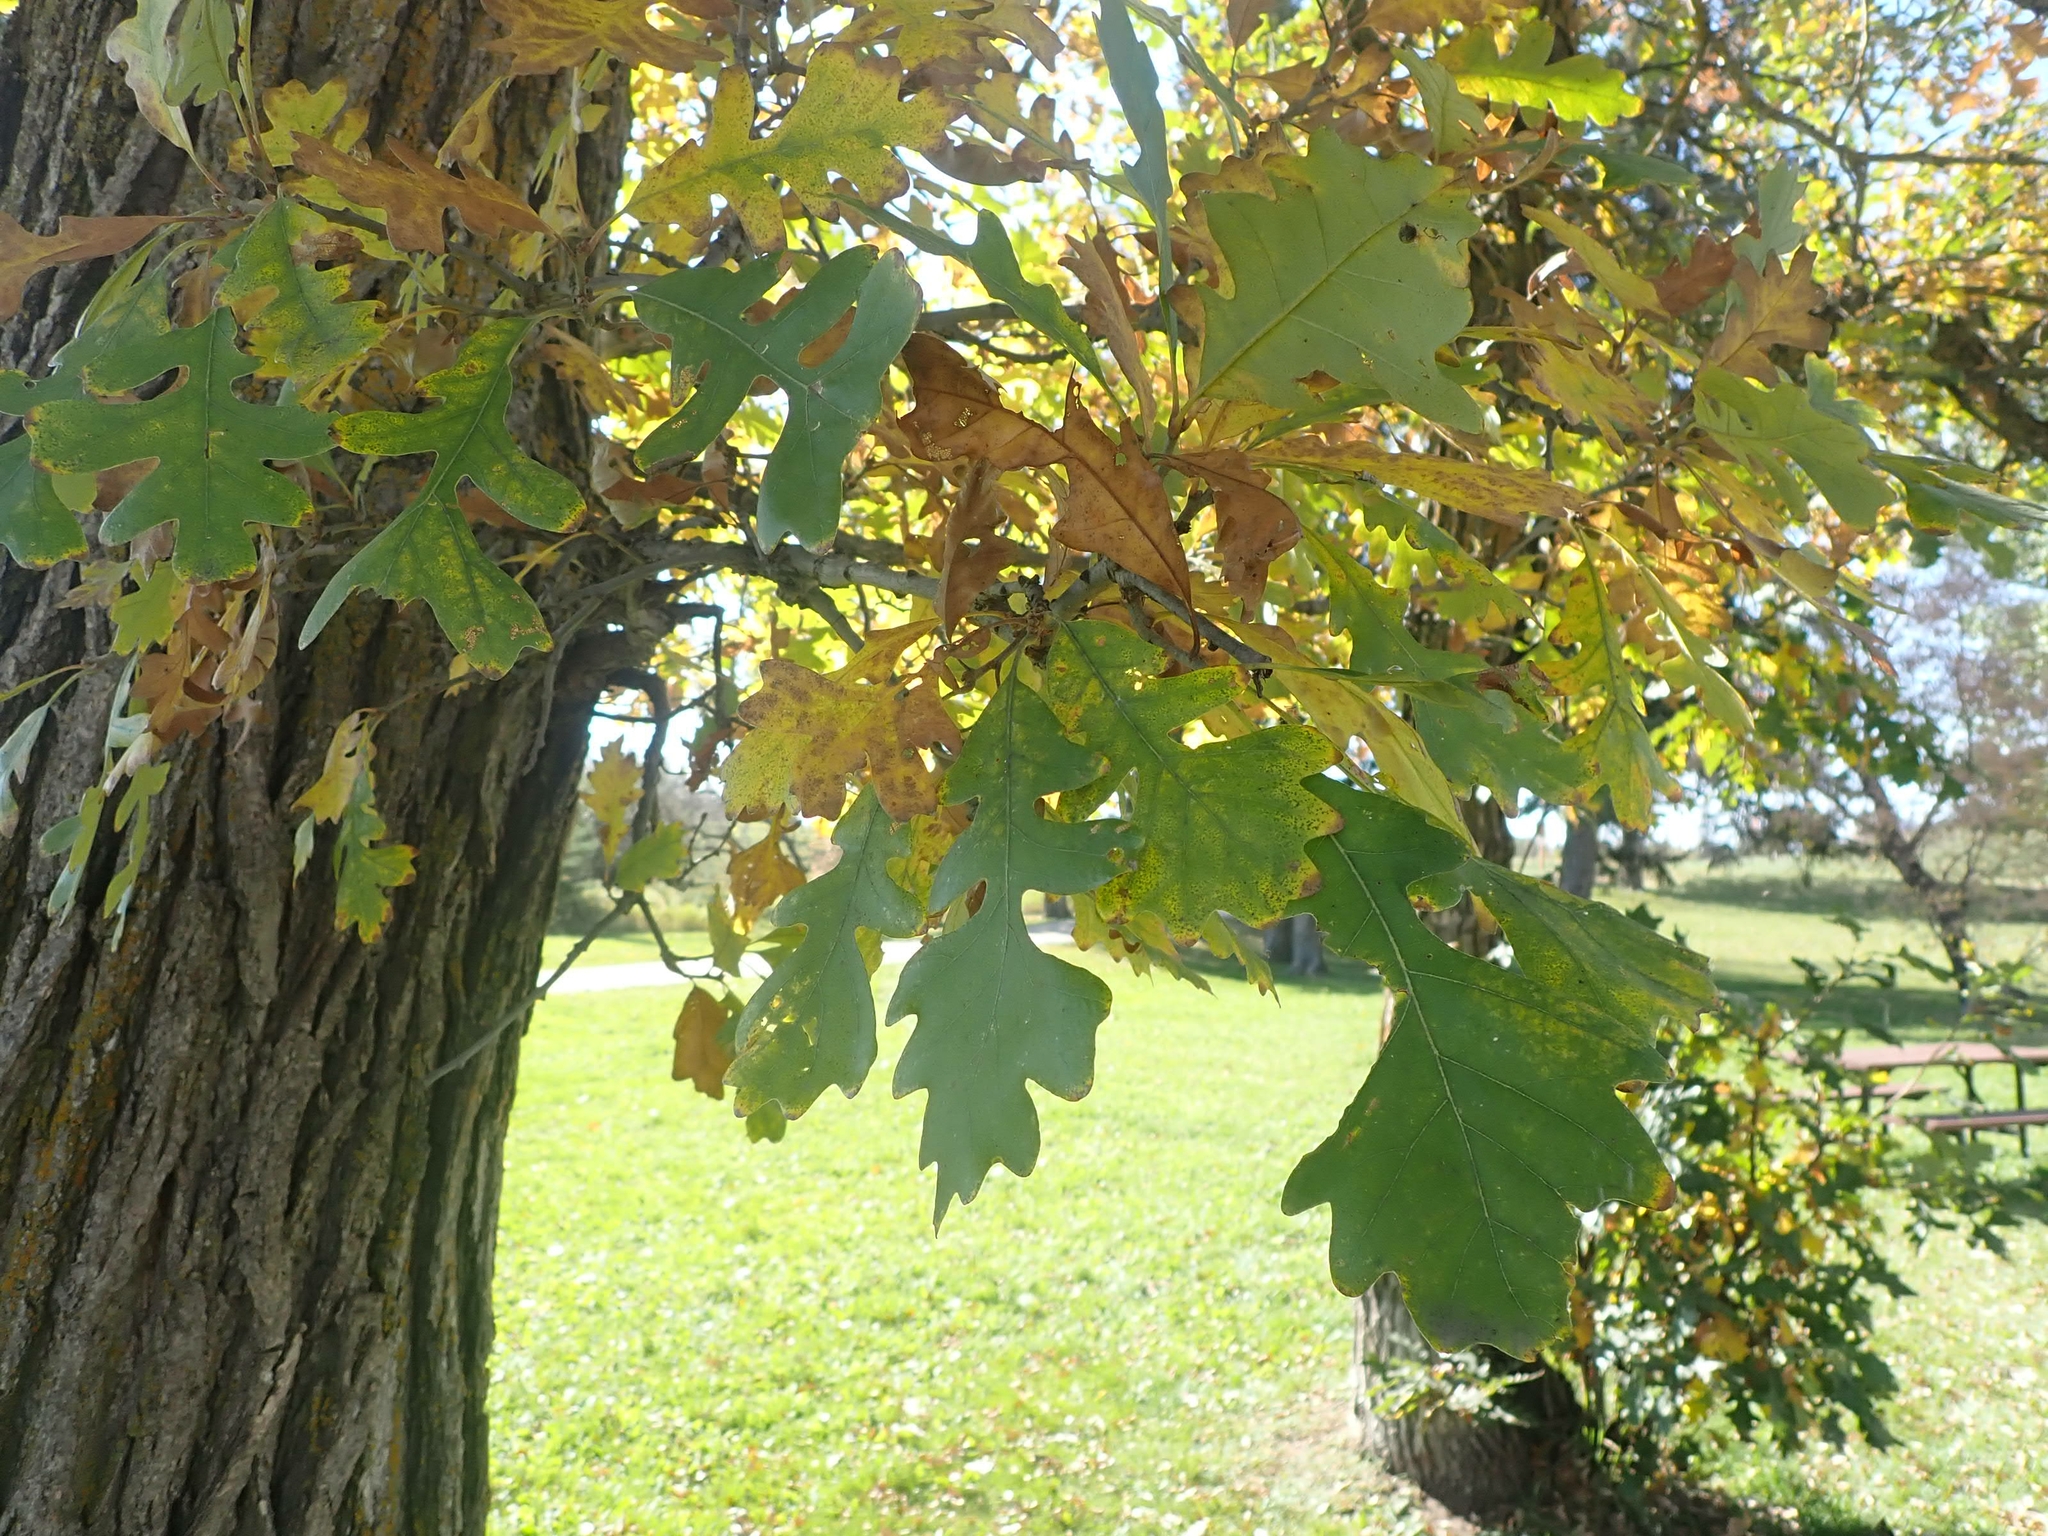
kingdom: Plantae
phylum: Tracheophyta
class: Magnoliopsida
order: Fagales
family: Fagaceae
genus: Quercus
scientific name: Quercus macrocarpa
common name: Bur oak
